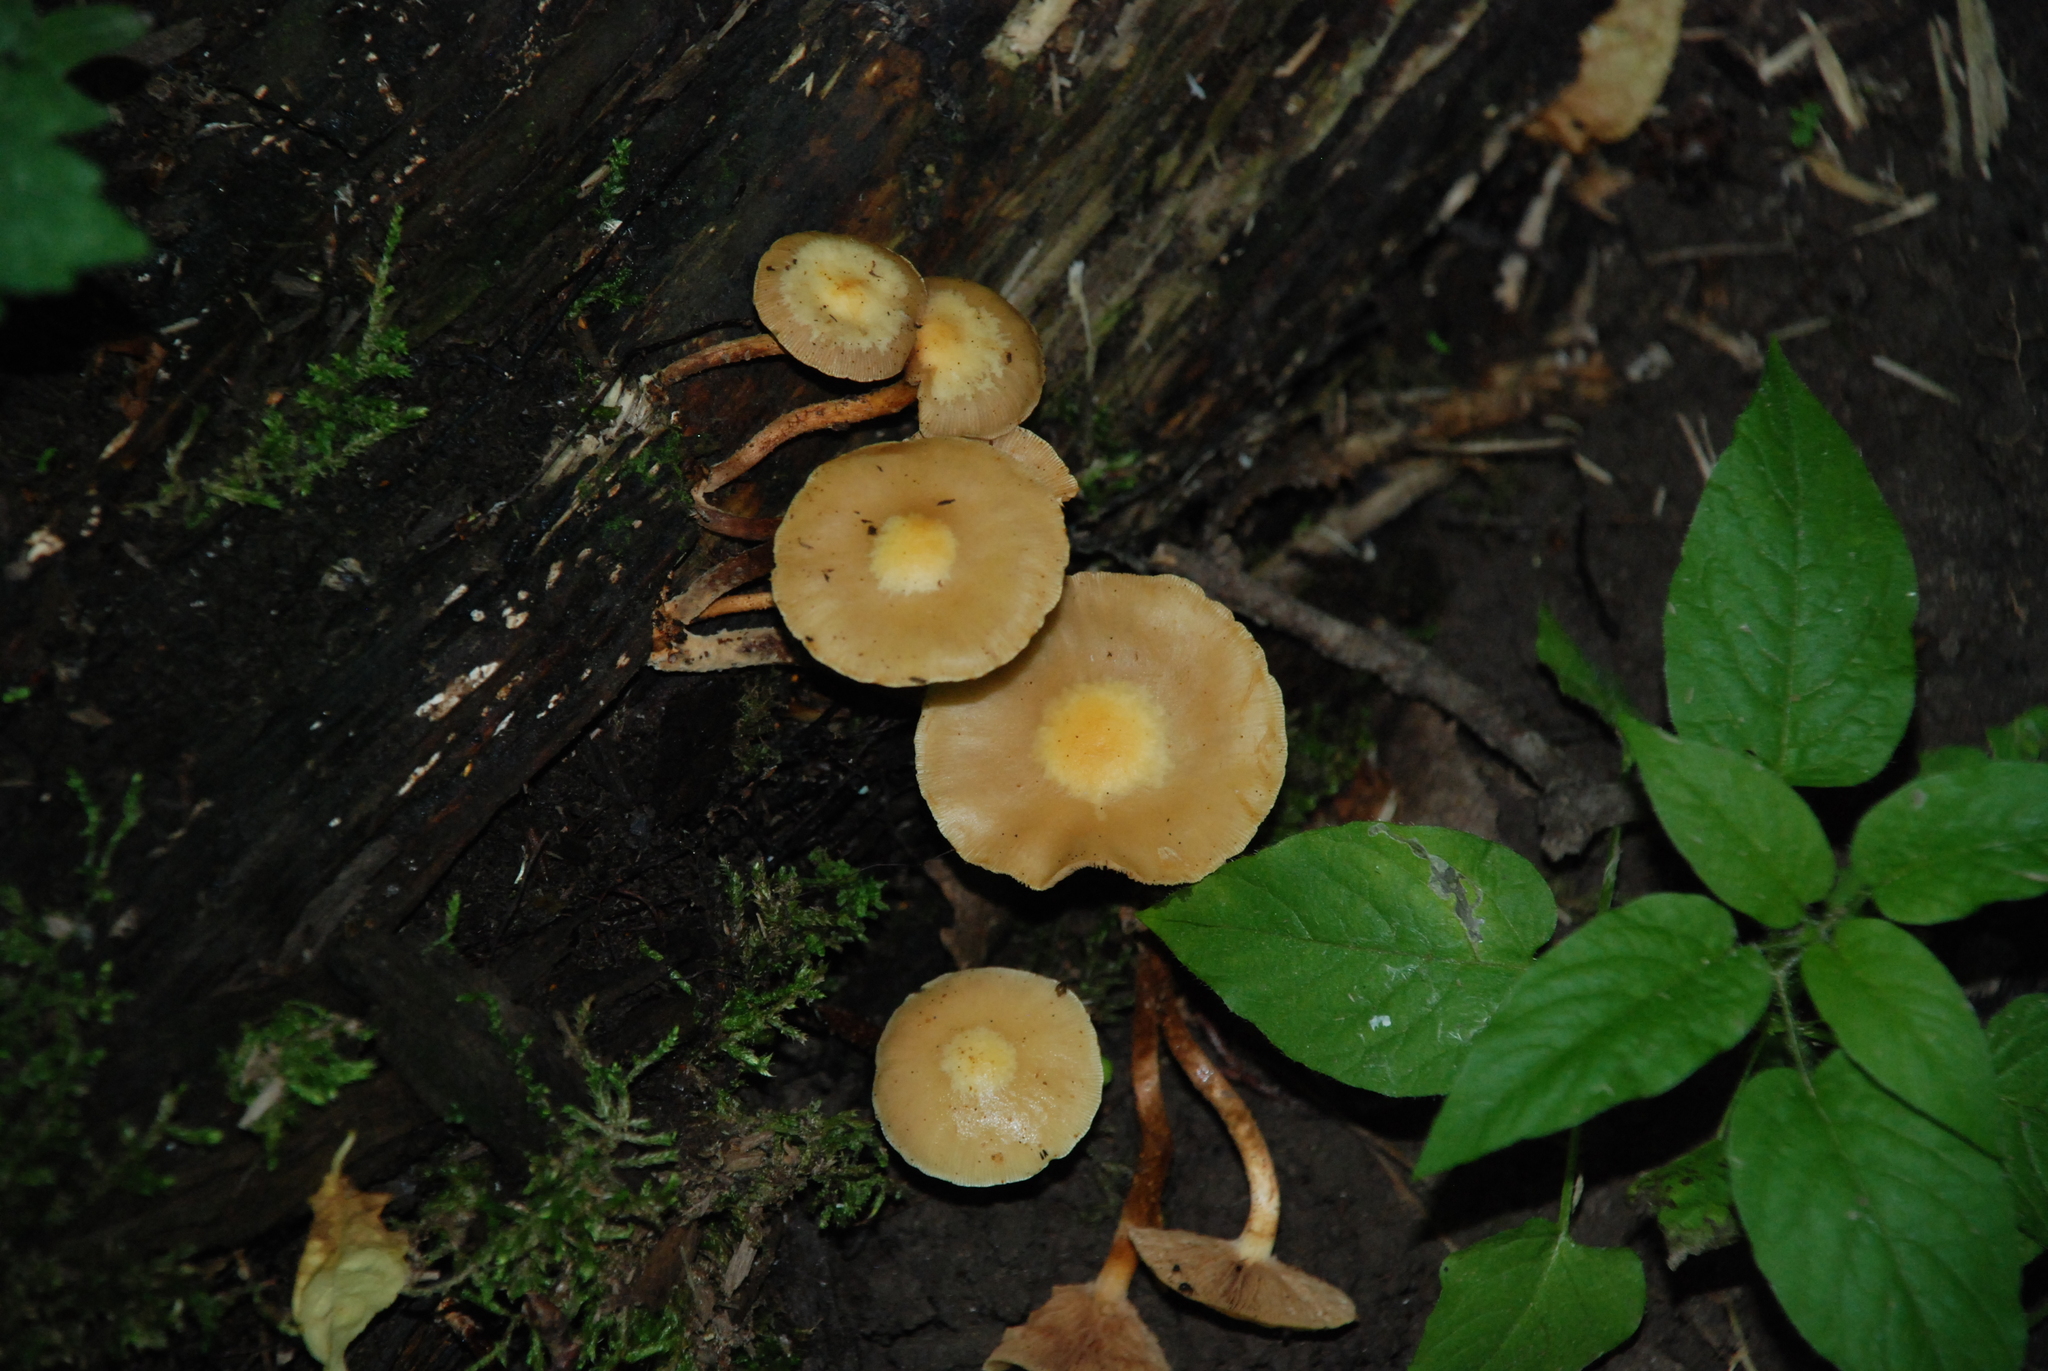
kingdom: Fungi
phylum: Basidiomycota
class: Agaricomycetes
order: Agaricales
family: Strophariaceae
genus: Kuehneromyces
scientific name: Kuehneromyces mutabilis
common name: Sheathed woodtuft
